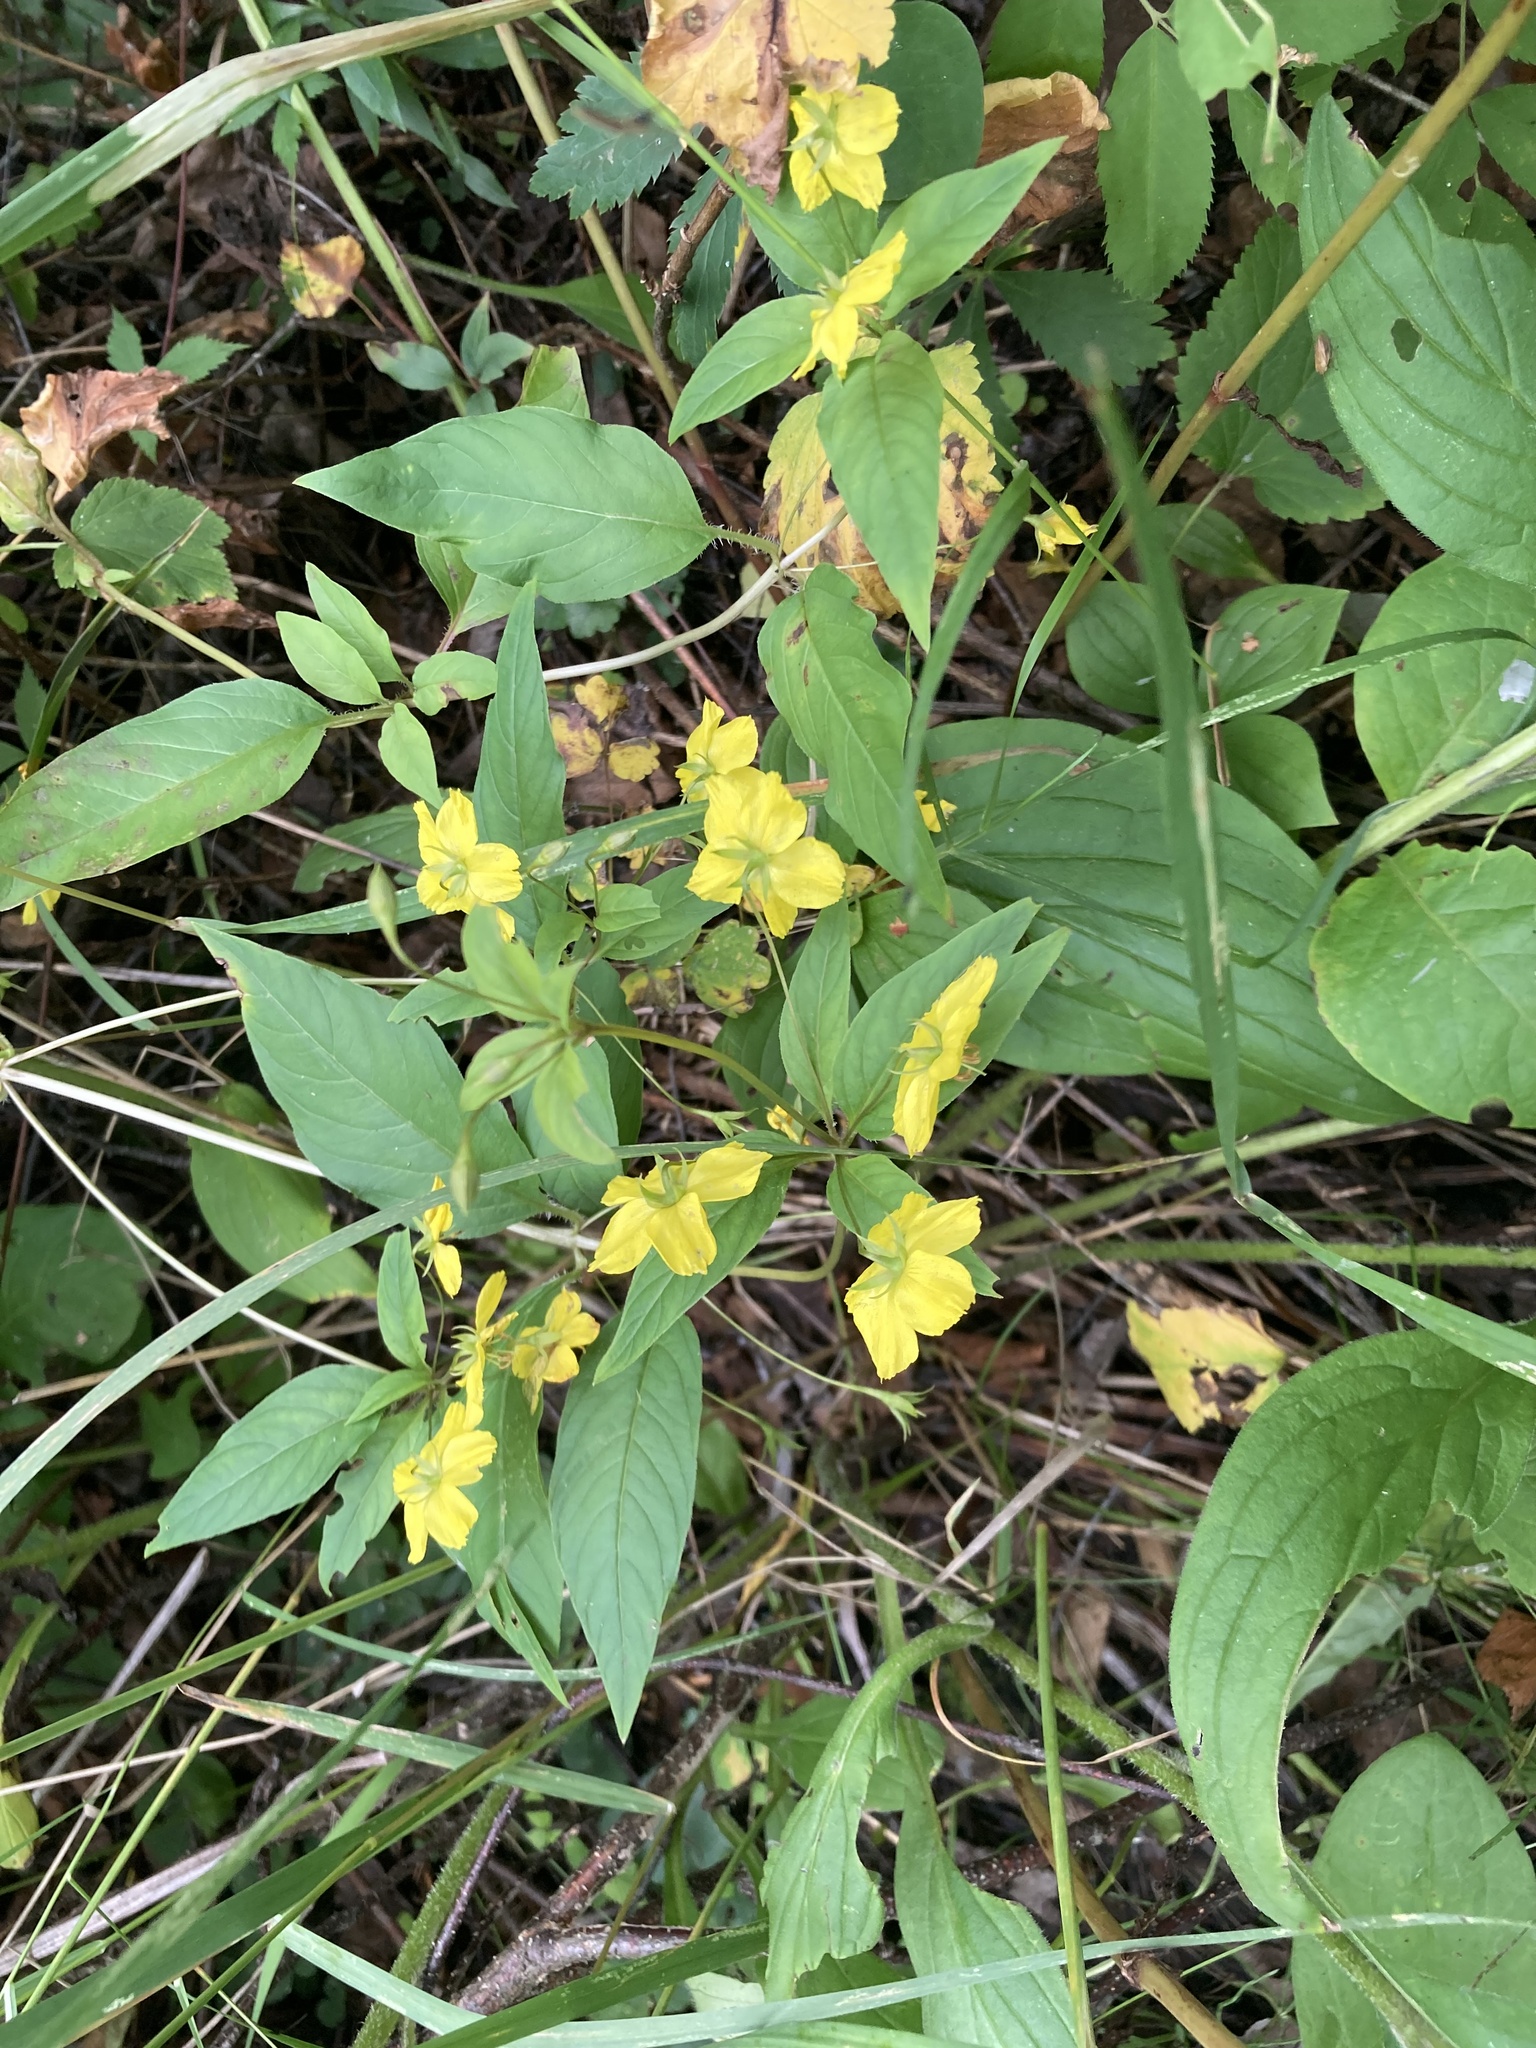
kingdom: Plantae
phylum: Tracheophyta
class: Magnoliopsida
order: Ericales
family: Primulaceae
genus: Lysimachia
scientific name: Lysimachia ciliata
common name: Fringed loosestrife
